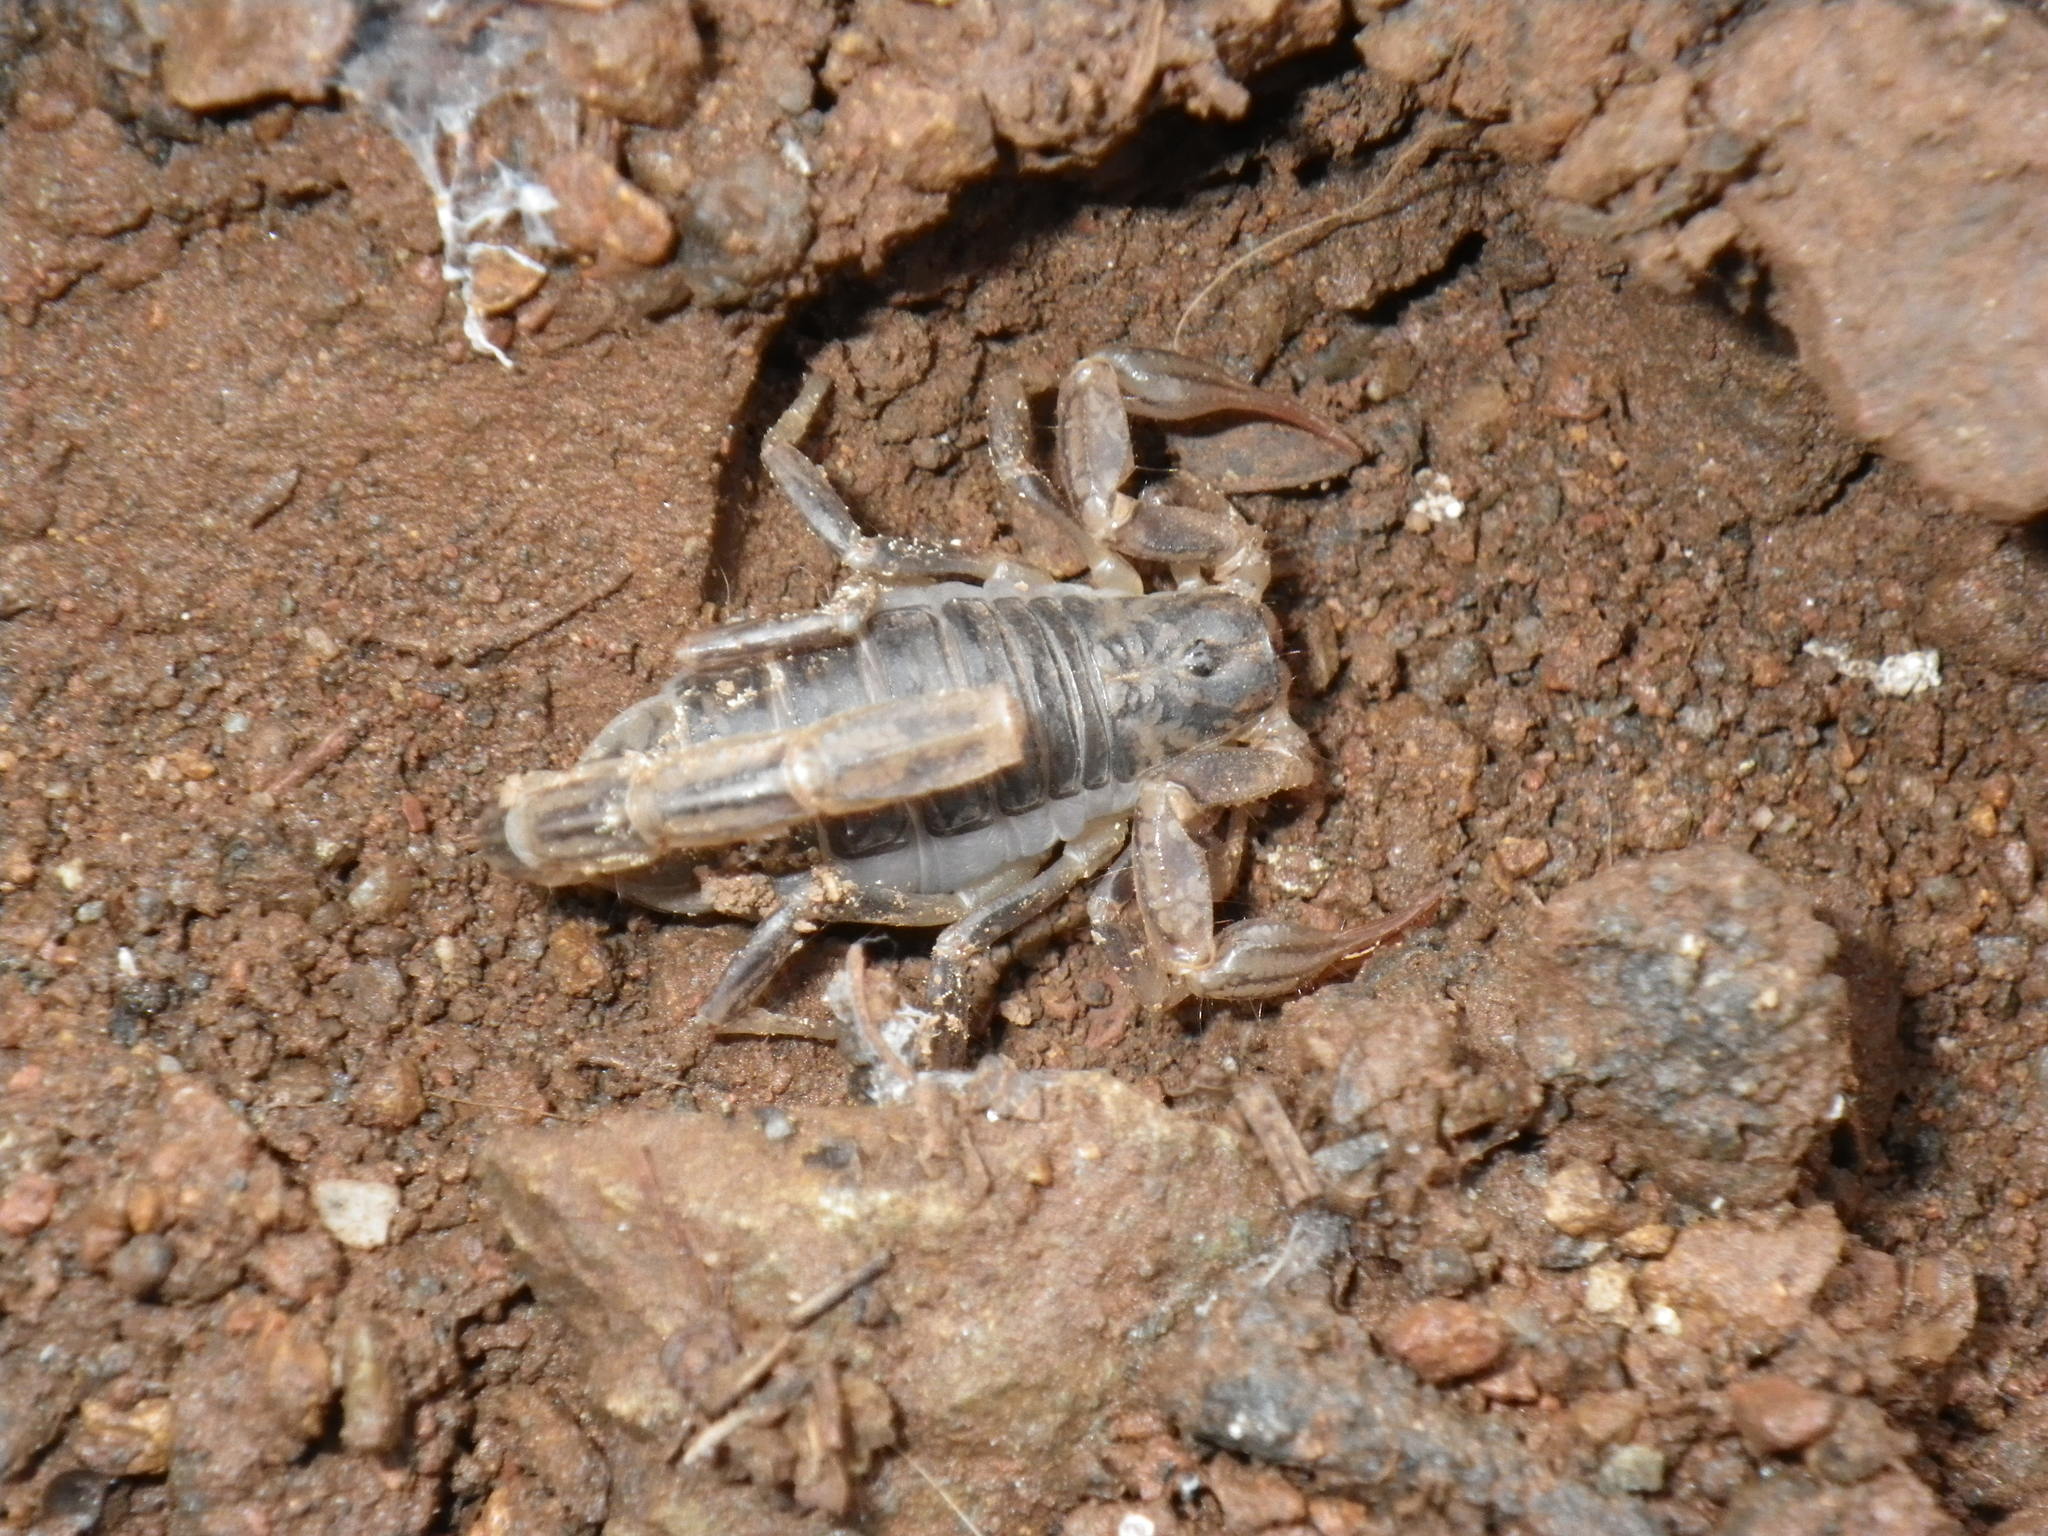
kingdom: Animalia
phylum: Arthropoda
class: Arachnida
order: Scorpiones
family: Vaejovidae
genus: Paruroctonus
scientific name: Paruroctonus silvestrii
